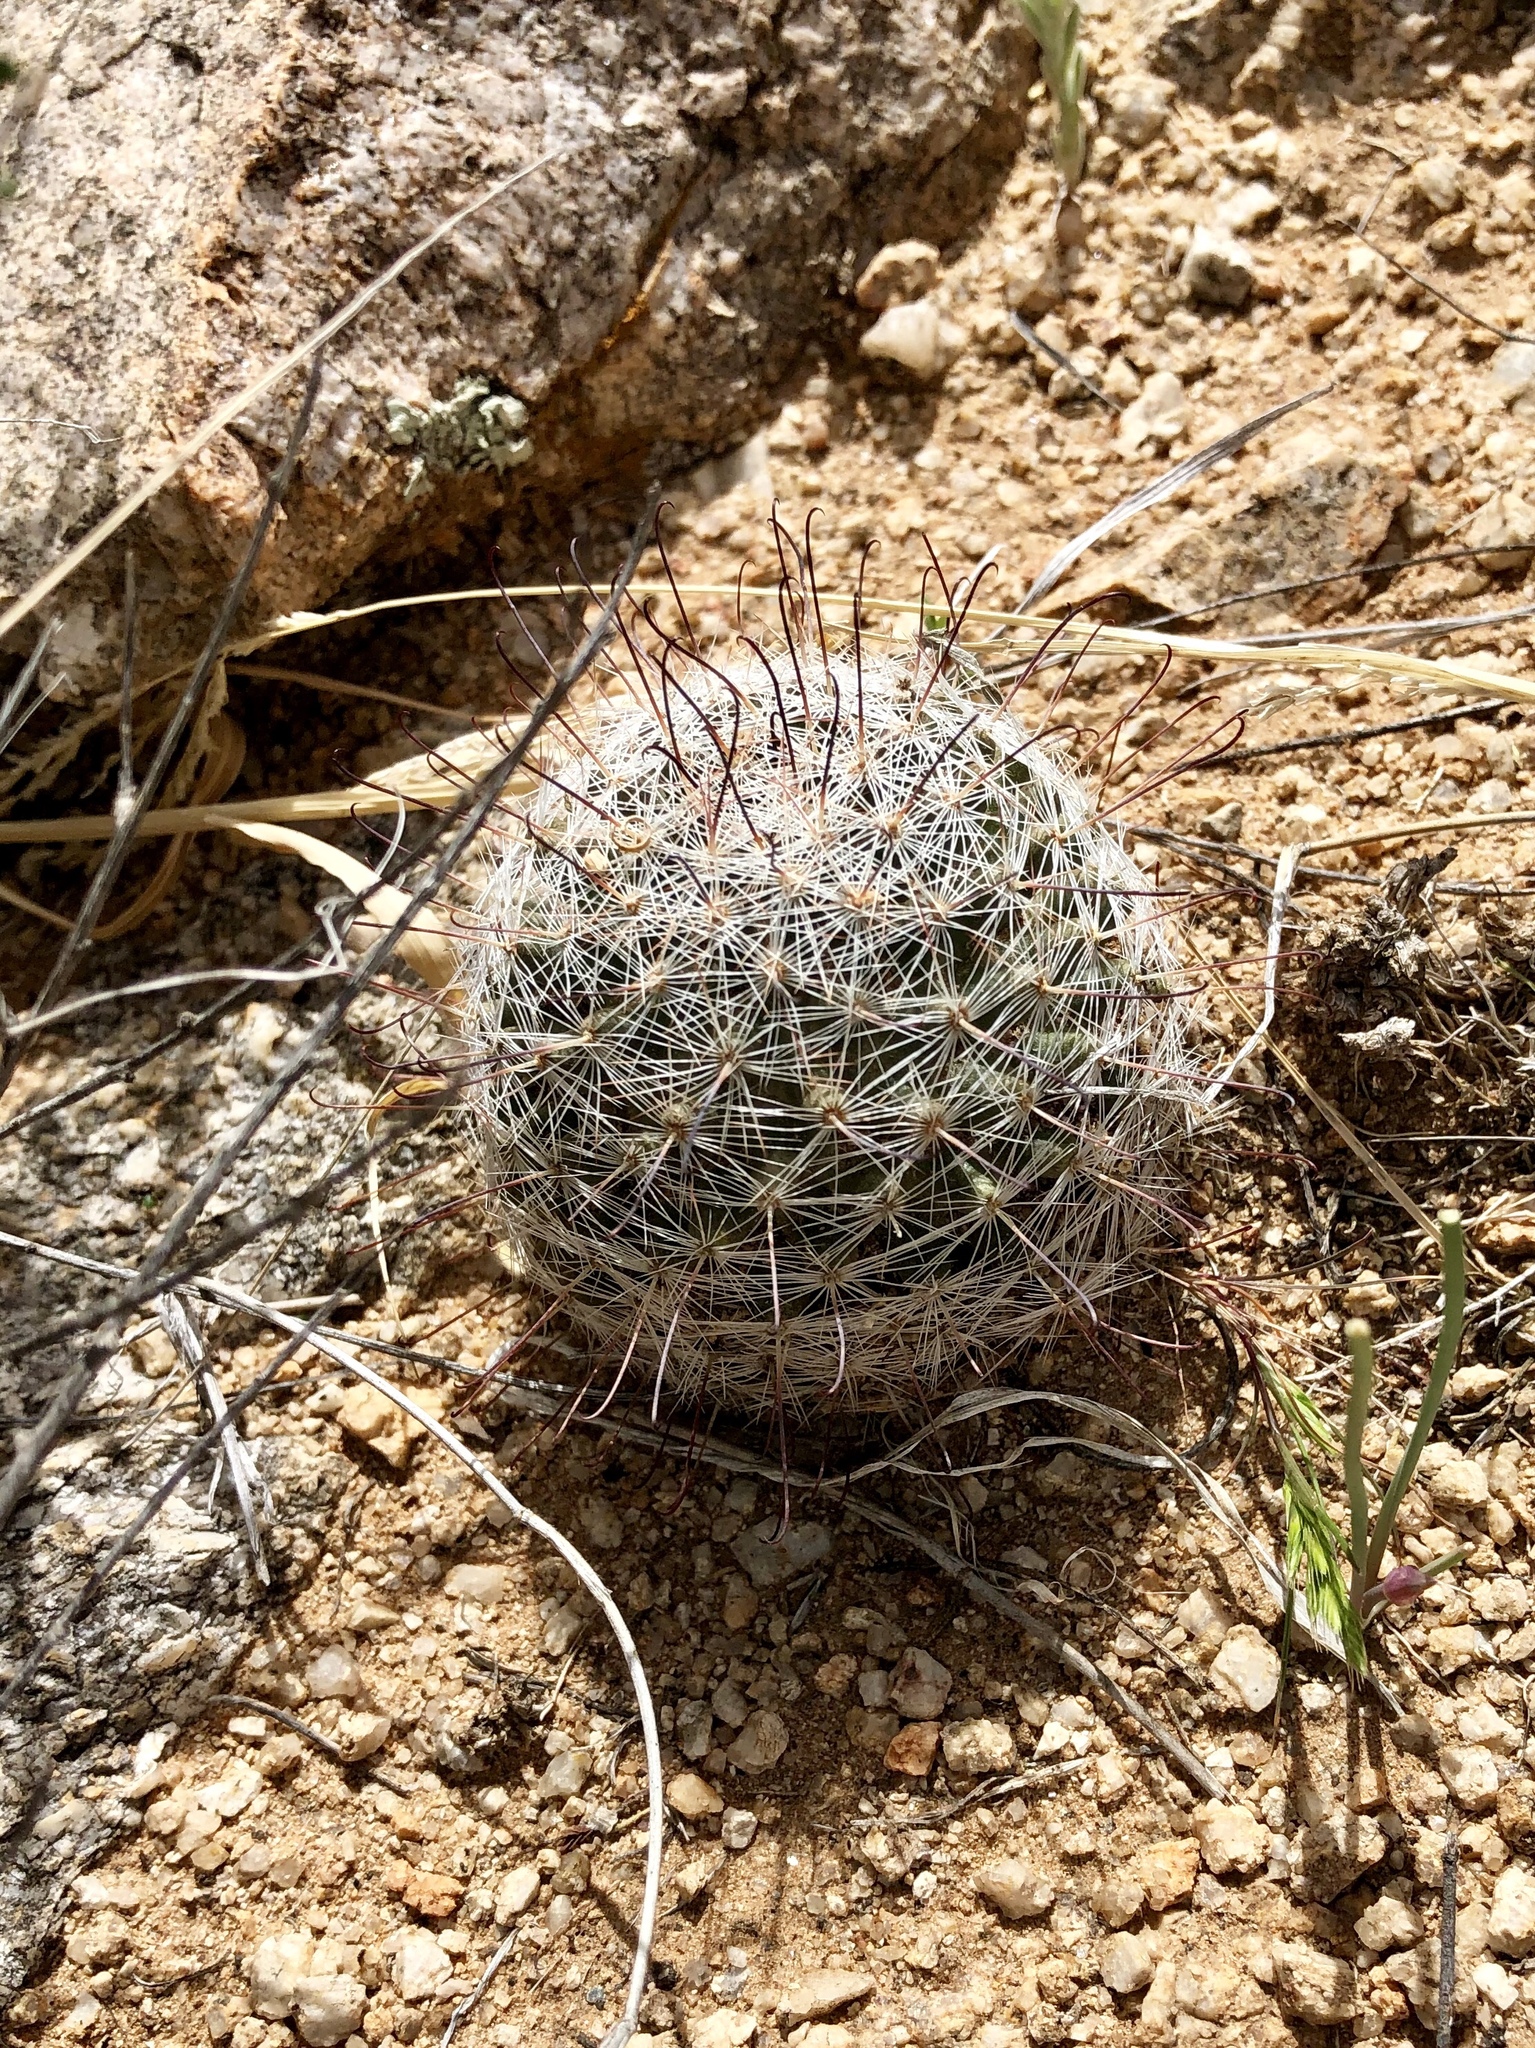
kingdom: Plantae
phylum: Tracheophyta
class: Magnoliopsida
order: Caryophyllales
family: Cactaceae
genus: Cochemiea
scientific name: Cochemiea grahamii
